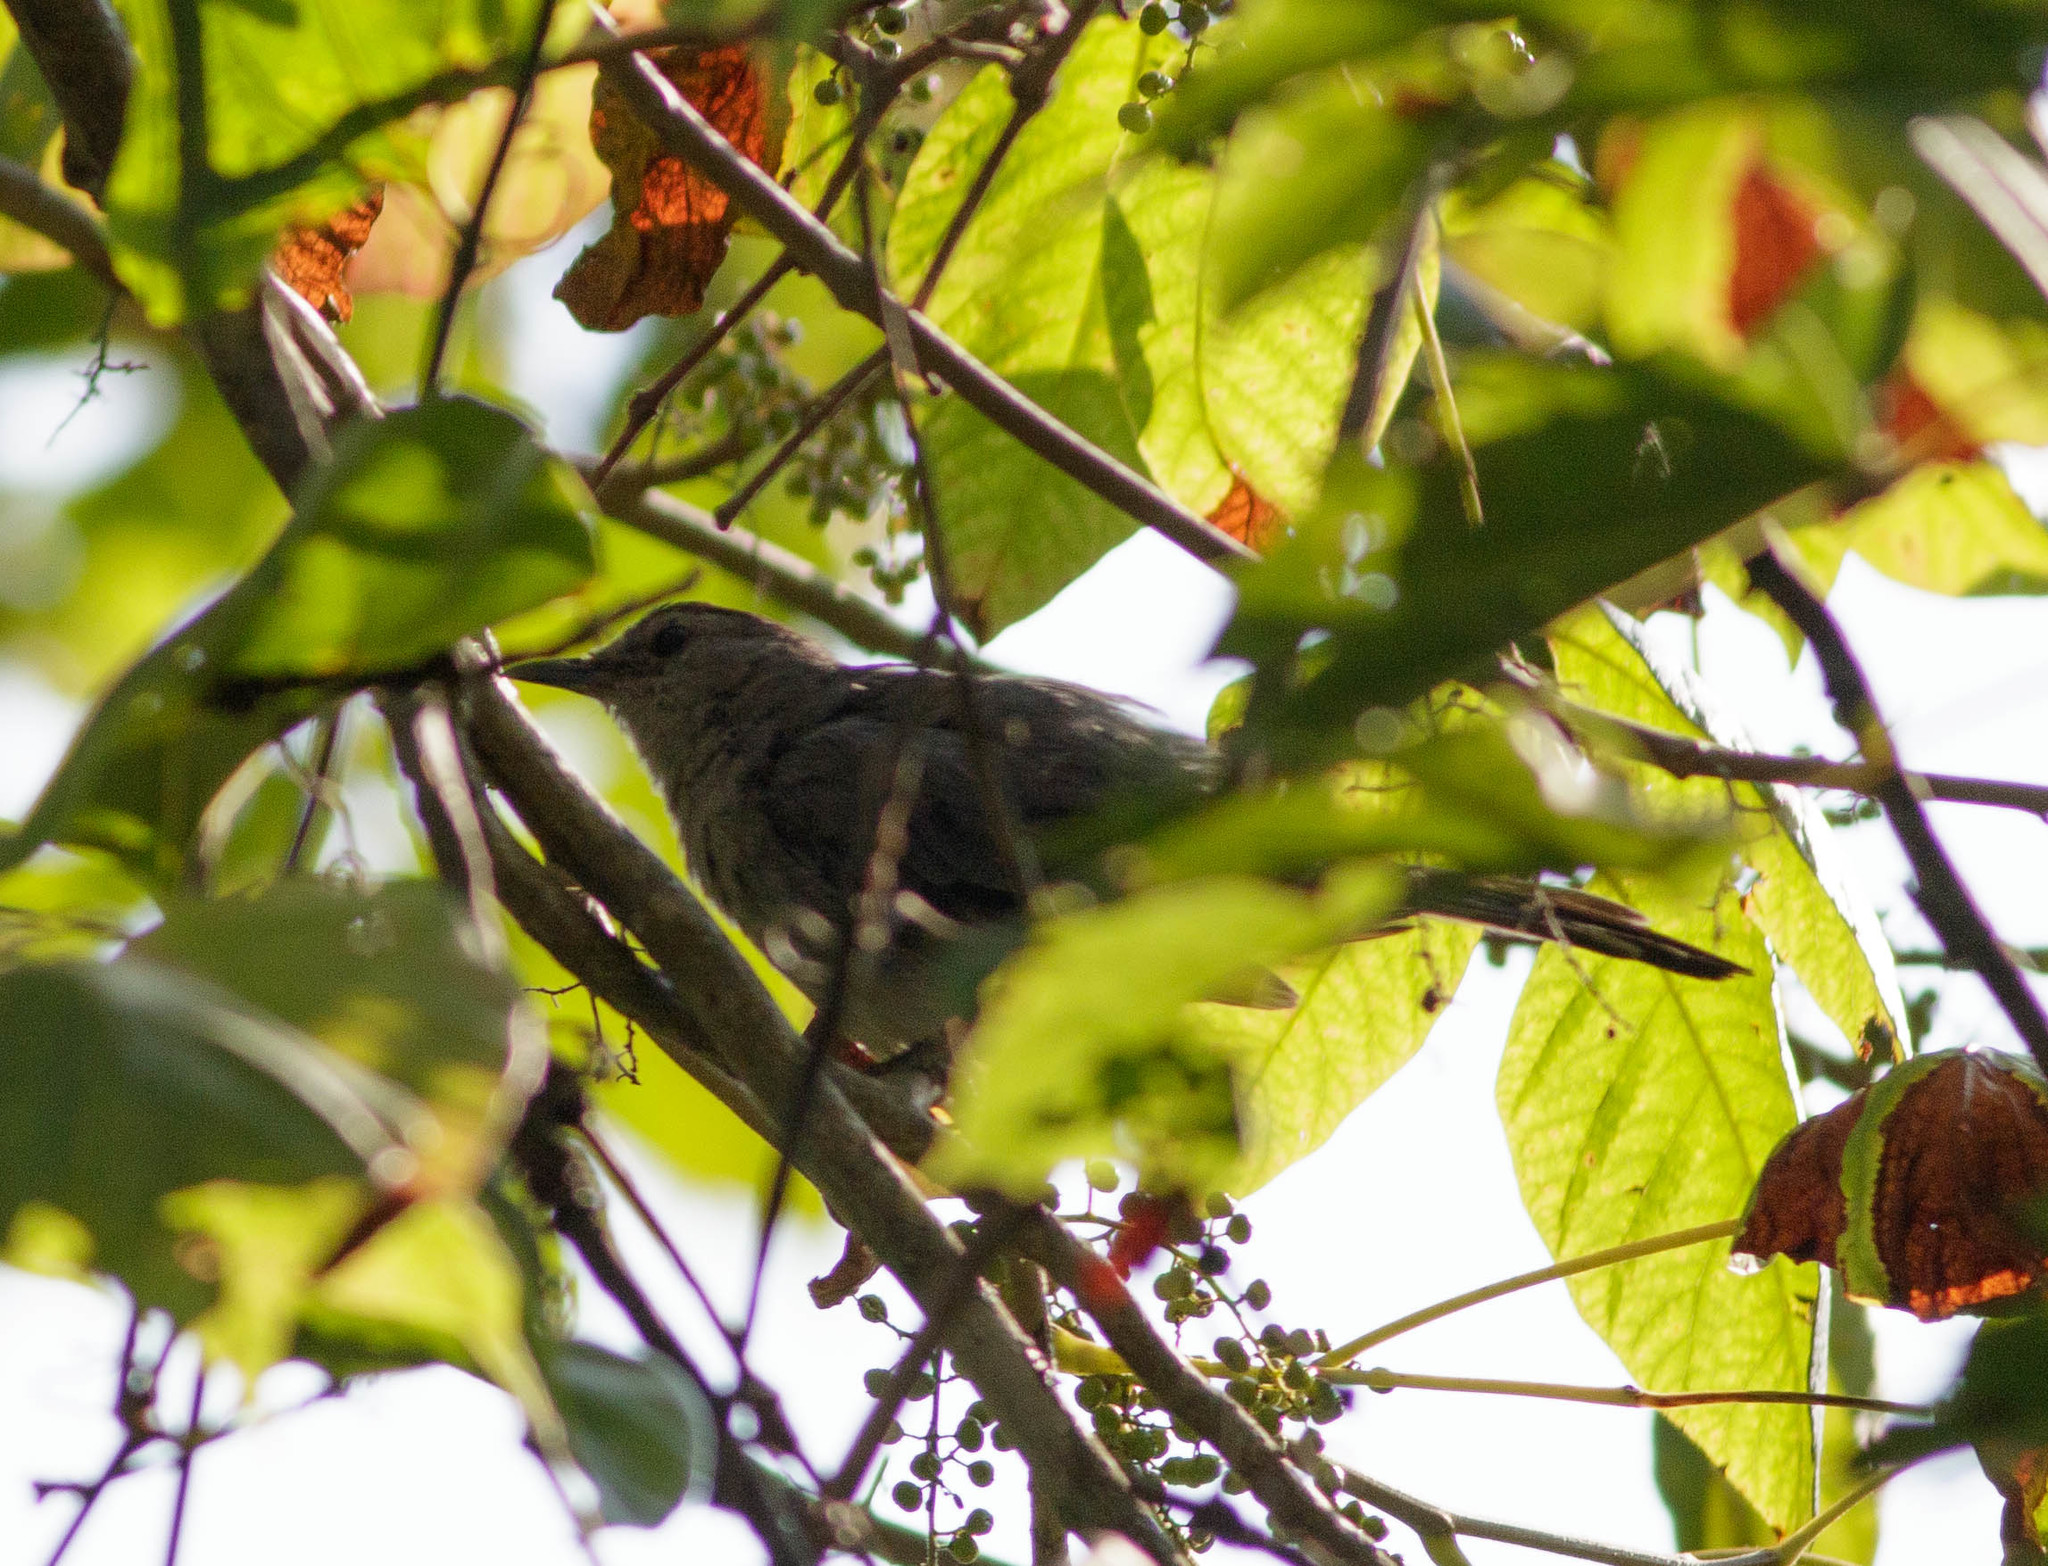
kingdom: Animalia
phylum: Chordata
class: Aves
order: Passeriformes
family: Mimidae
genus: Dumetella
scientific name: Dumetella carolinensis
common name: Gray catbird
